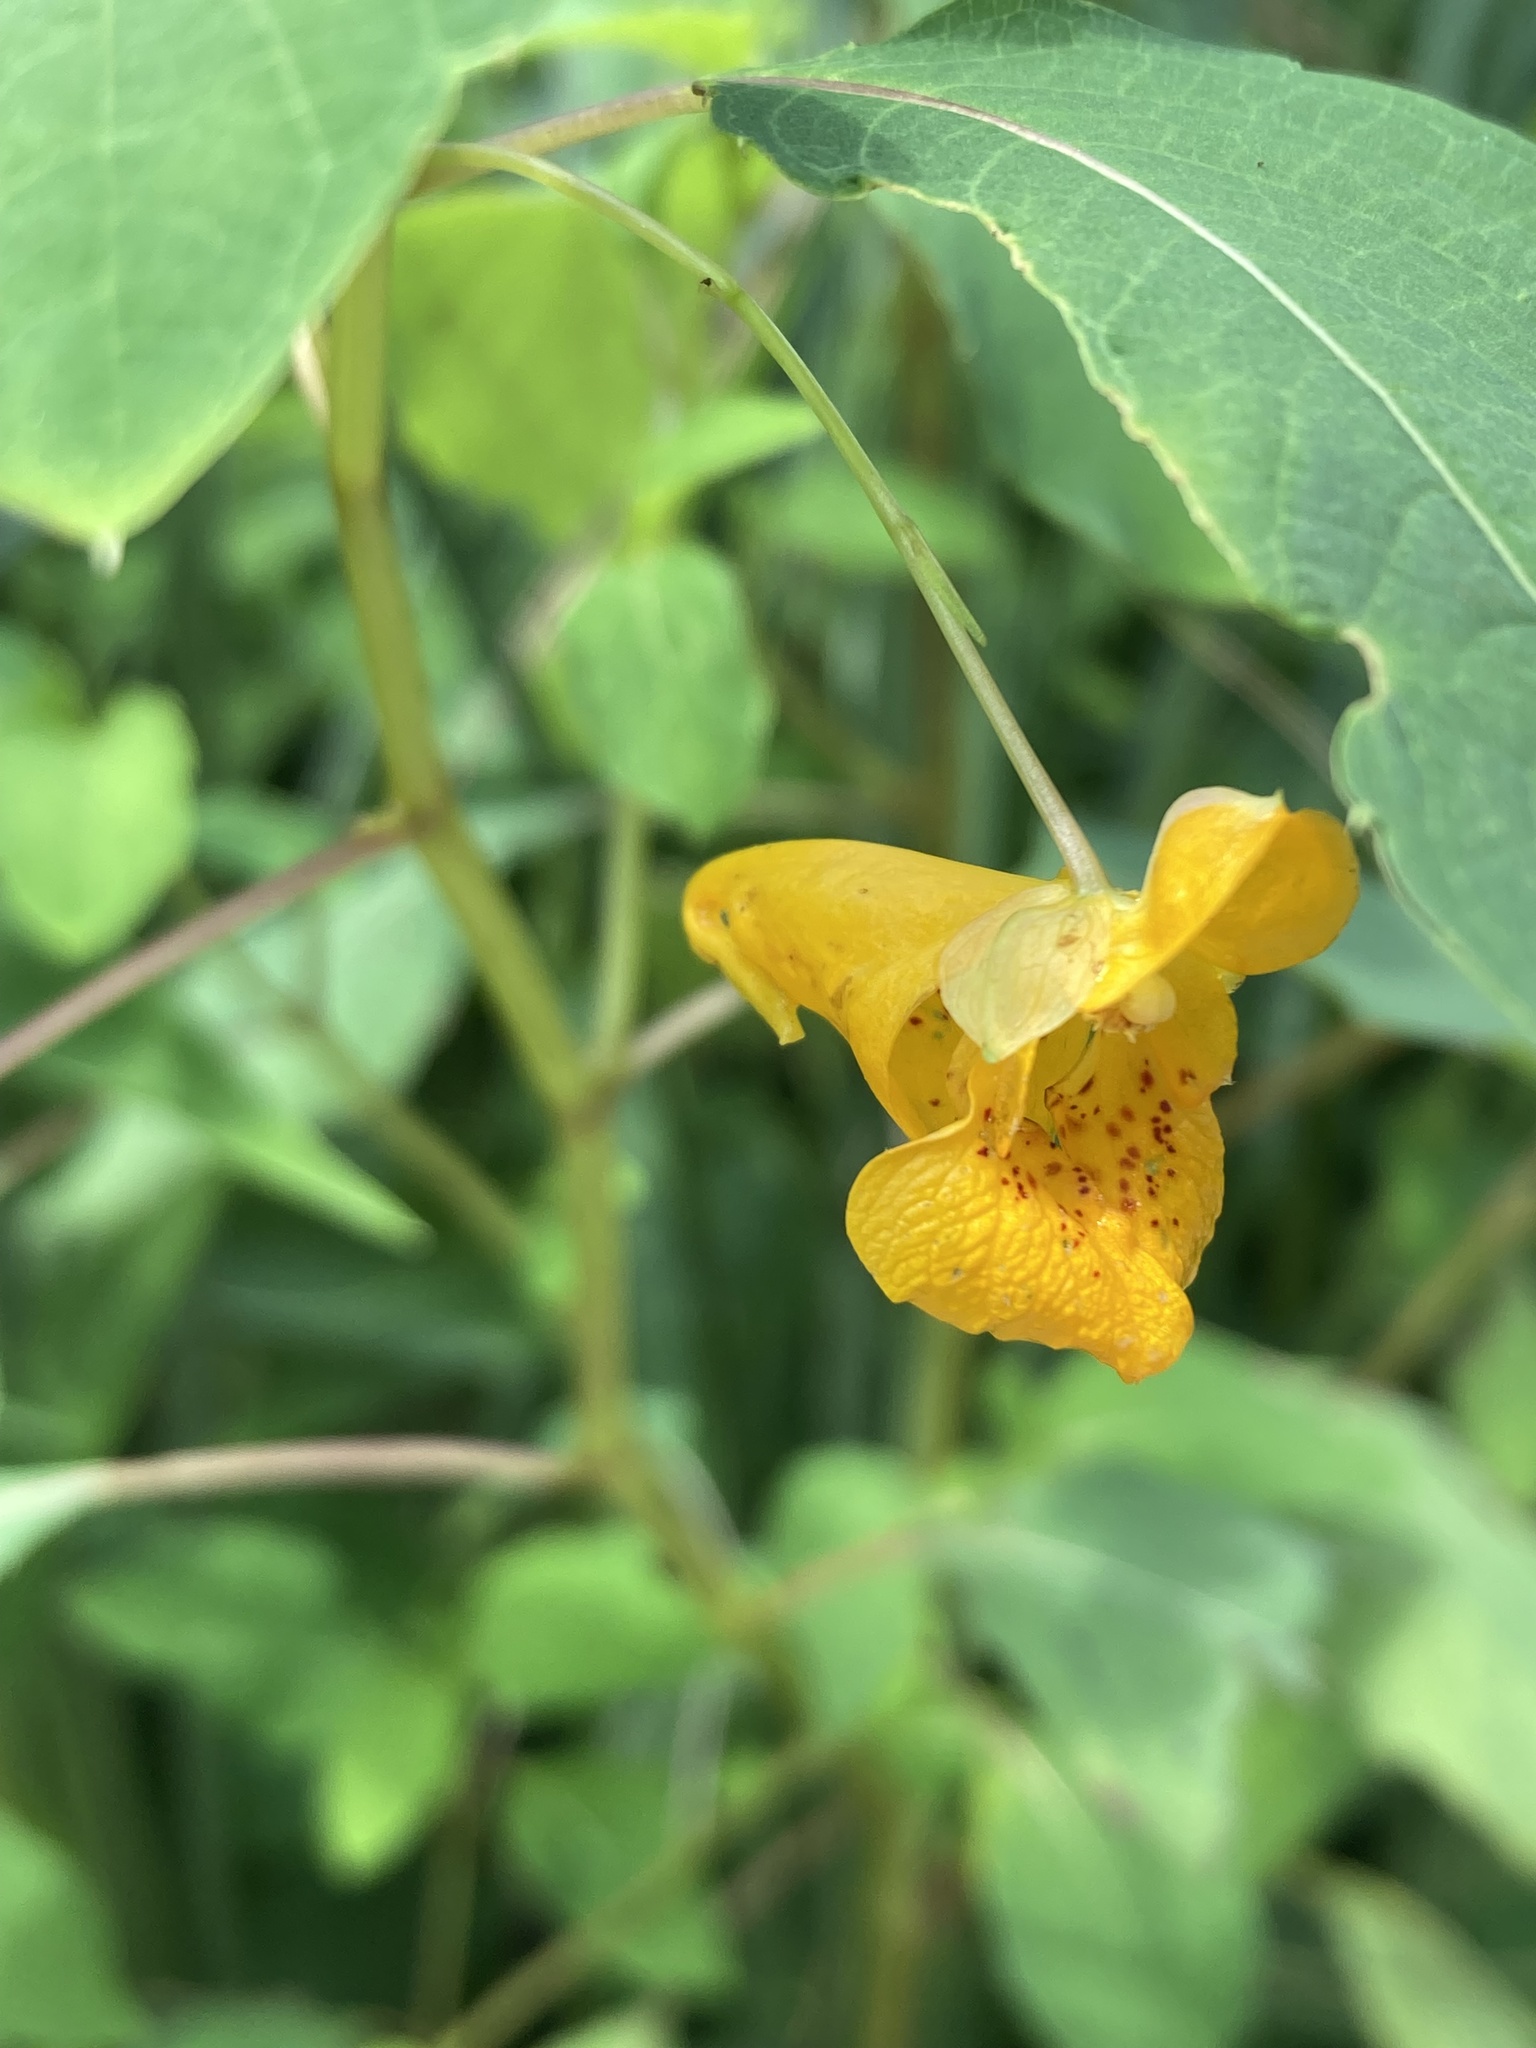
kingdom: Plantae
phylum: Tracheophyta
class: Magnoliopsida
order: Ericales
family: Balsaminaceae
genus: Impatiens
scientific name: Impatiens capensis
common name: Orange balsam
